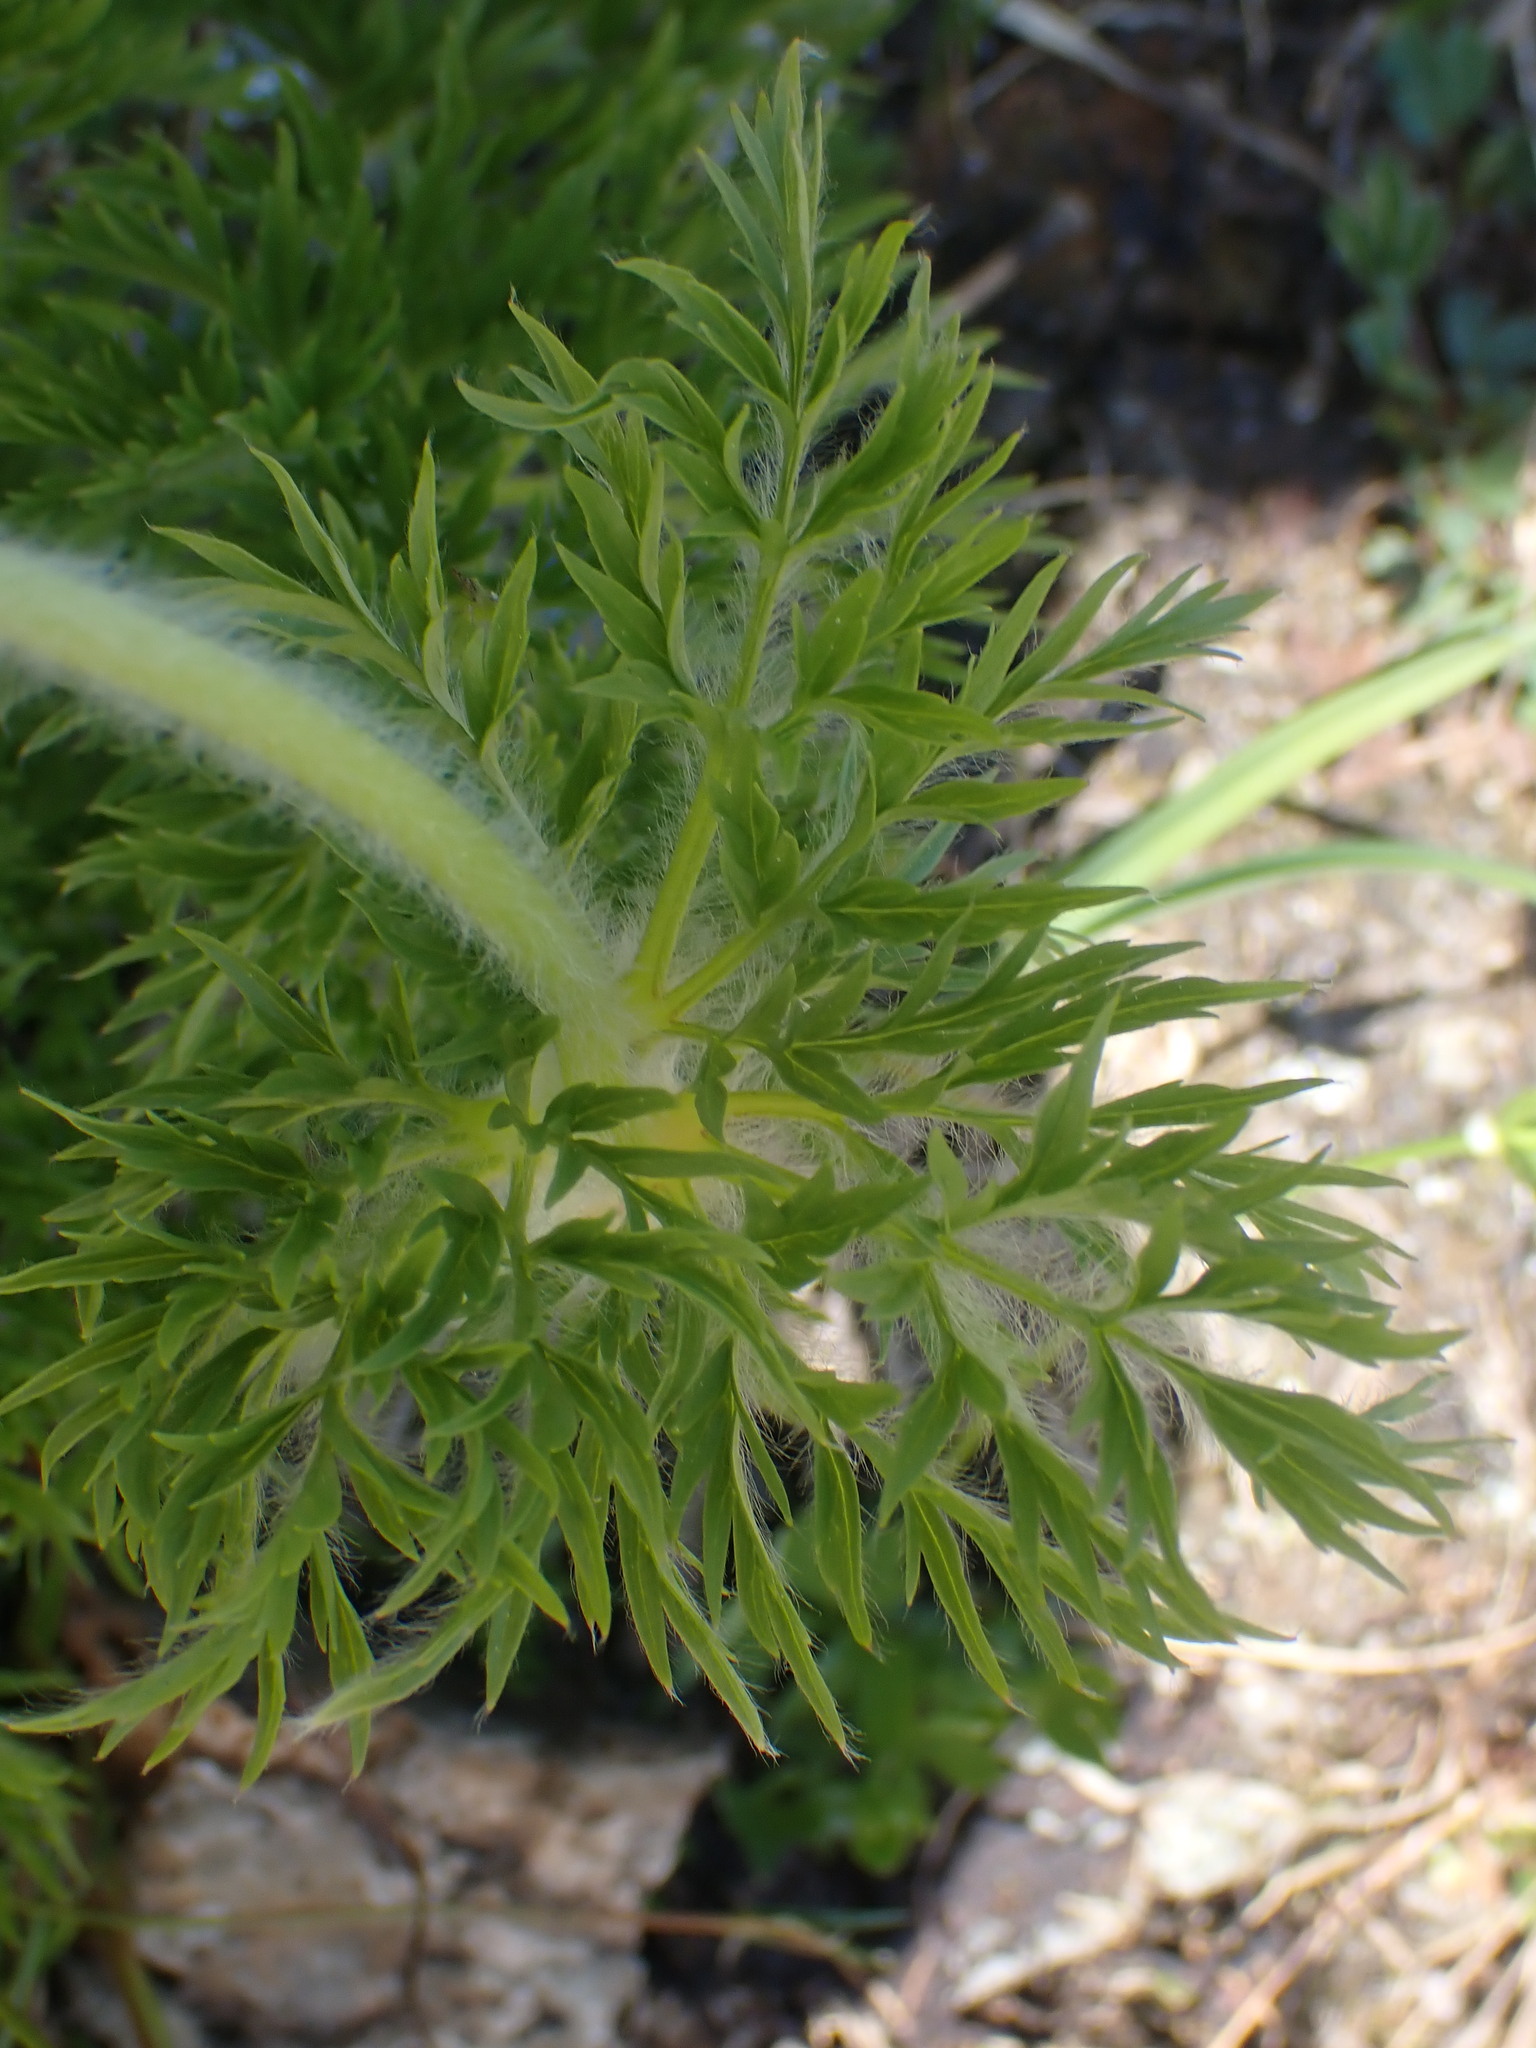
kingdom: Plantae
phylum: Tracheophyta
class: Magnoliopsida
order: Ranunculales
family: Ranunculaceae
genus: Pulsatilla
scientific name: Pulsatilla occidentalis
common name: Mountain pasqueflower
